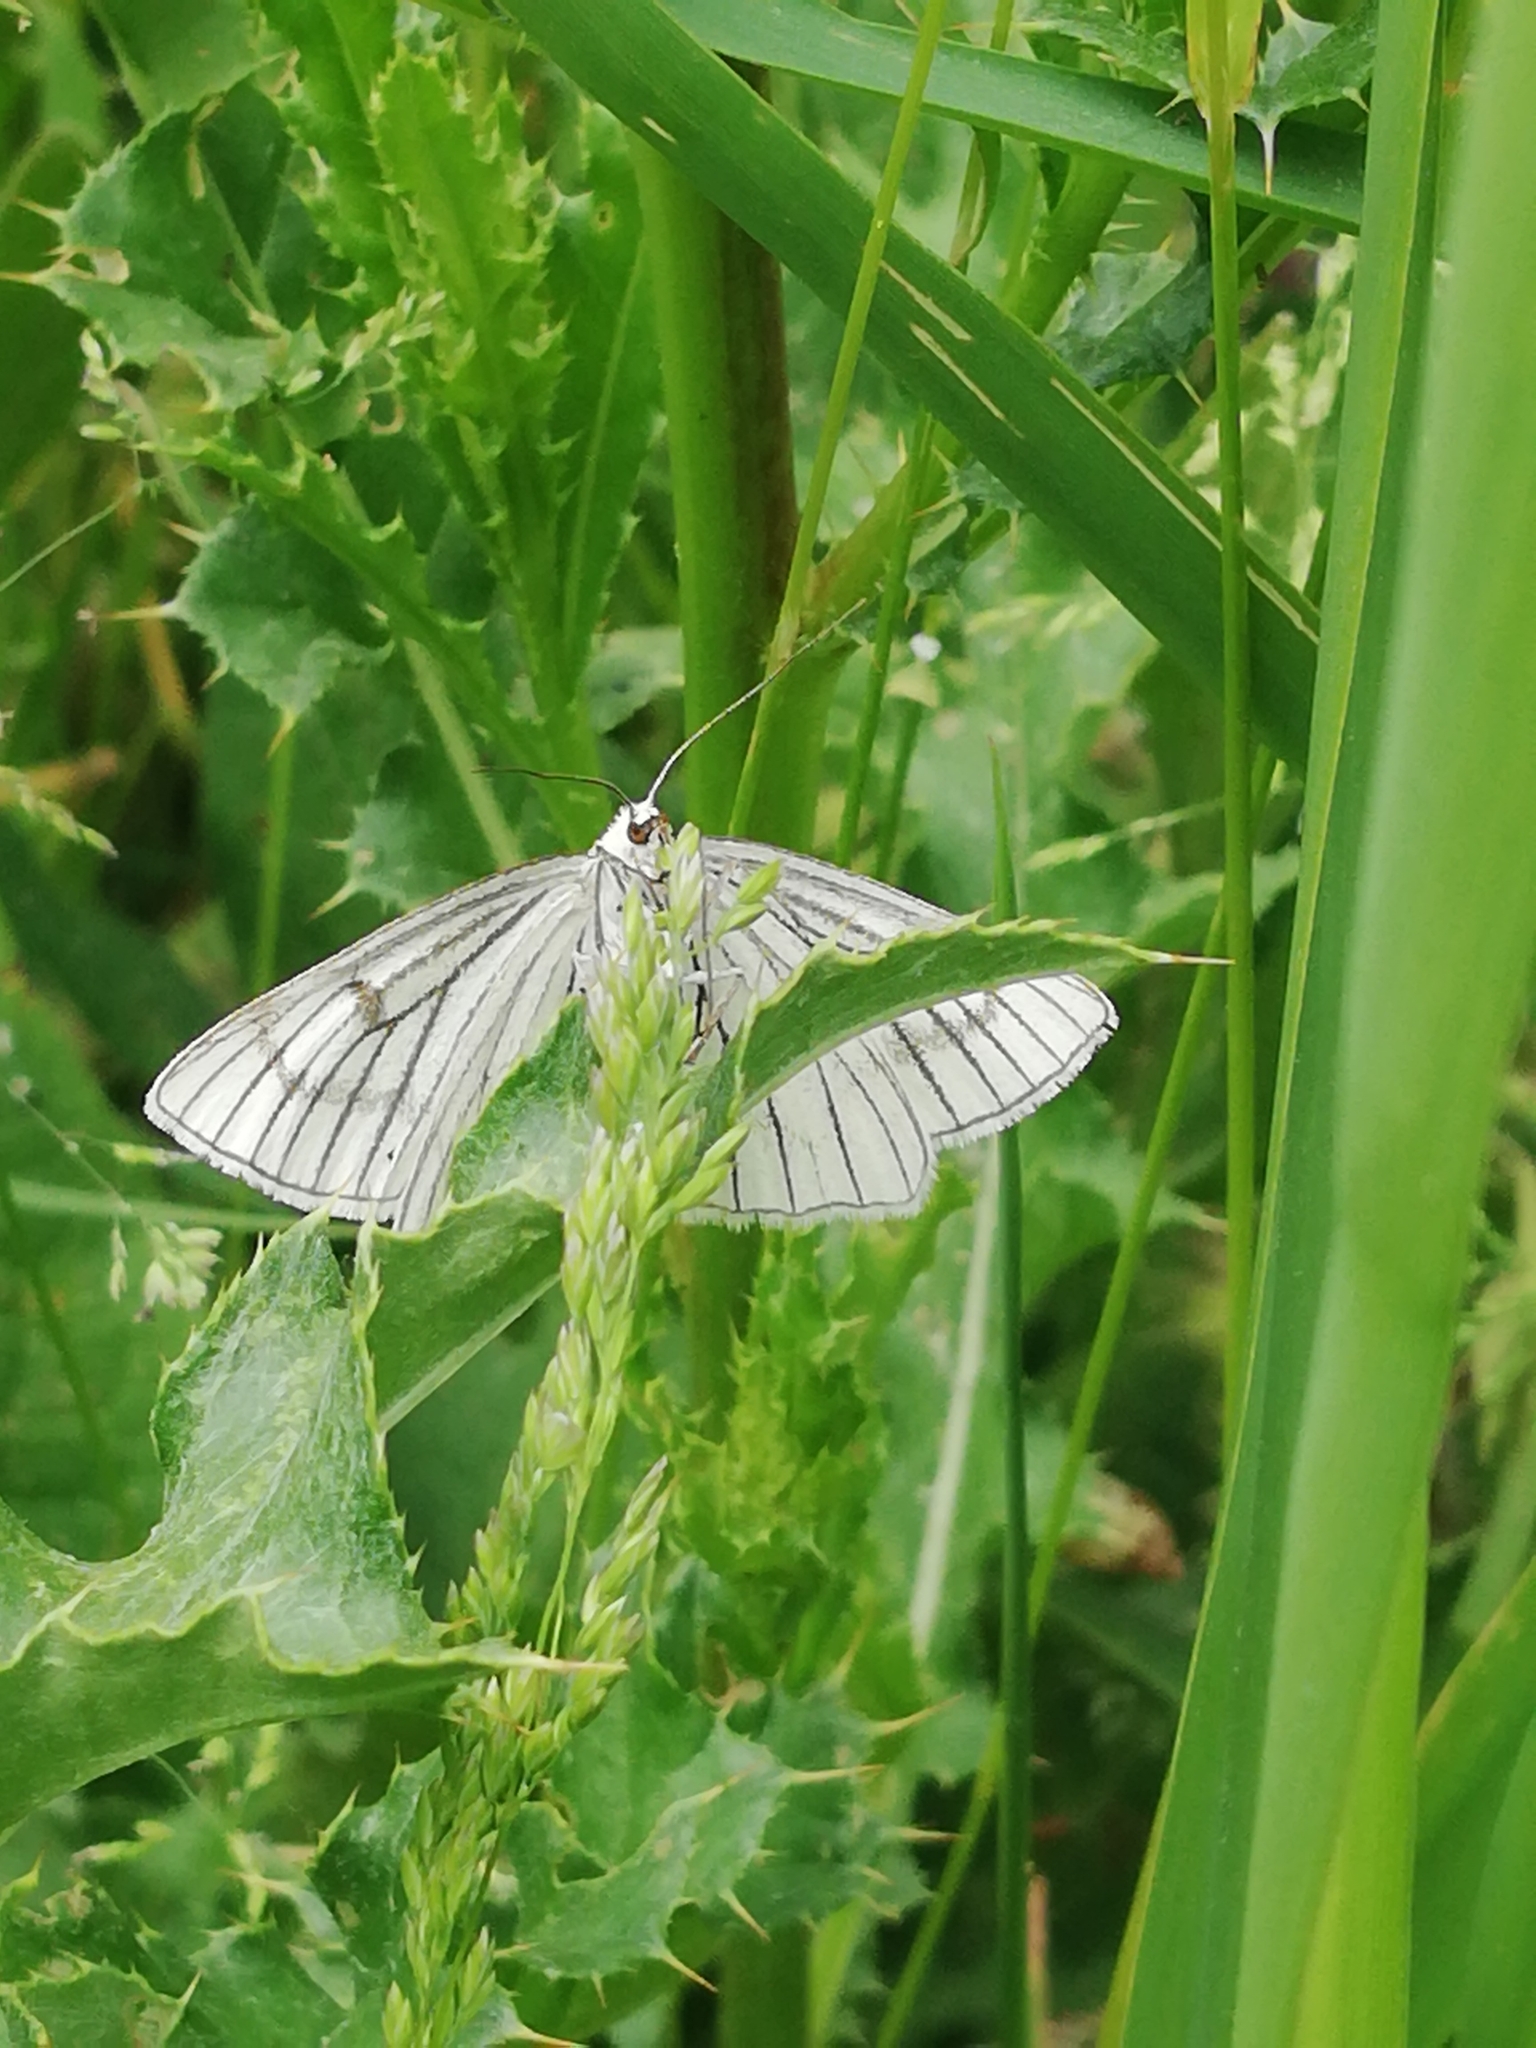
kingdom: Animalia
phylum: Arthropoda
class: Insecta
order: Lepidoptera
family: Geometridae
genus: Siona
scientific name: Siona lineata
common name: Black-veined moth
